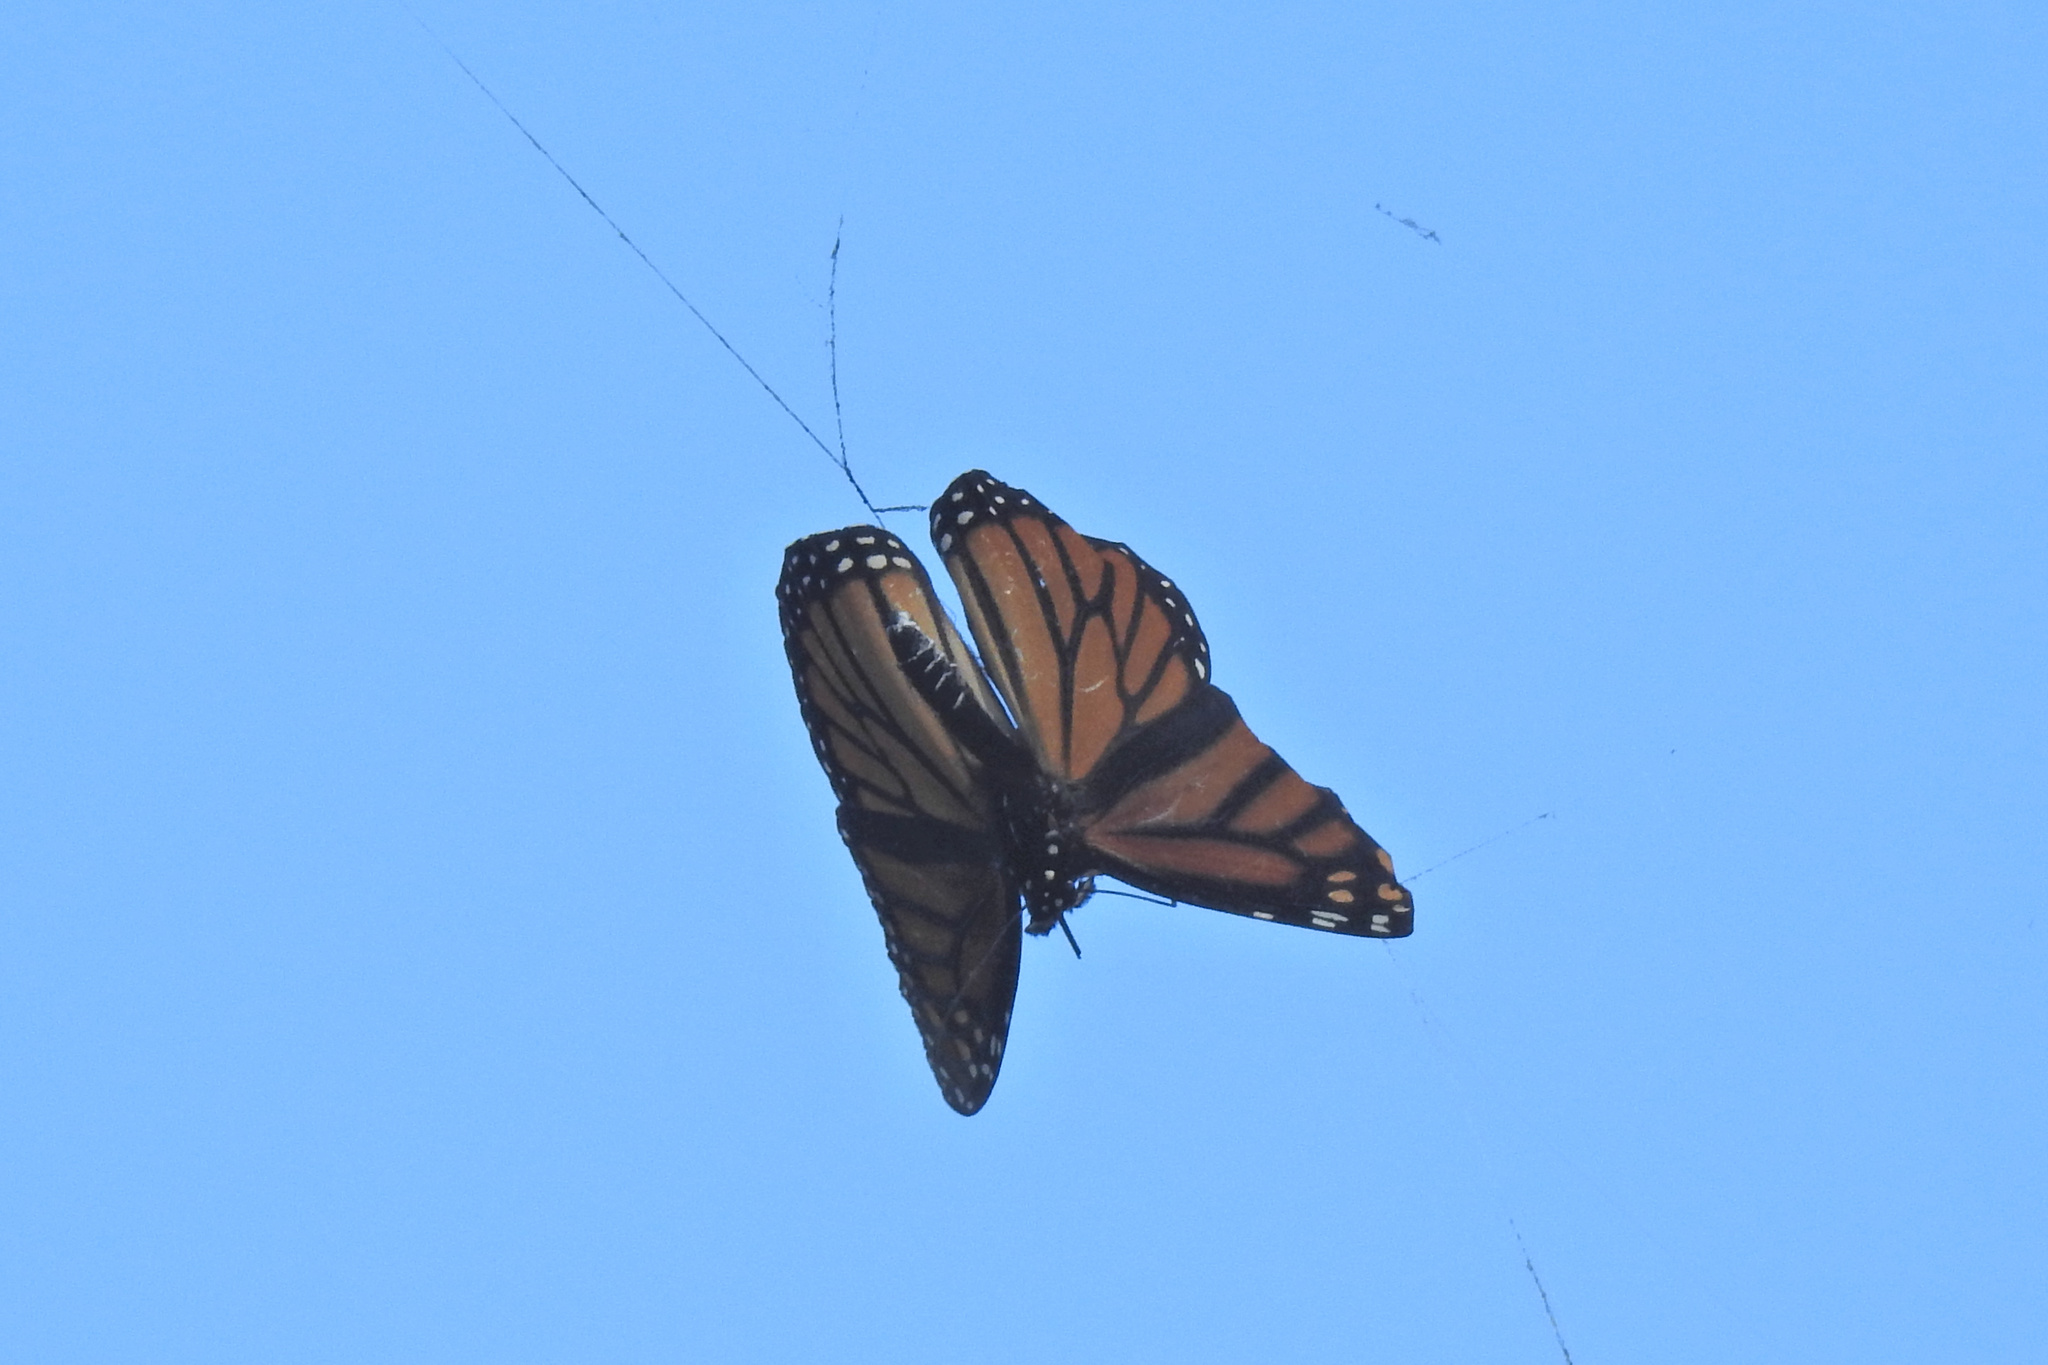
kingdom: Animalia
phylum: Arthropoda
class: Insecta
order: Lepidoptera
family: Nymphalidae
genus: Danaus
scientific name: Danaus plexippus
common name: Monarch
